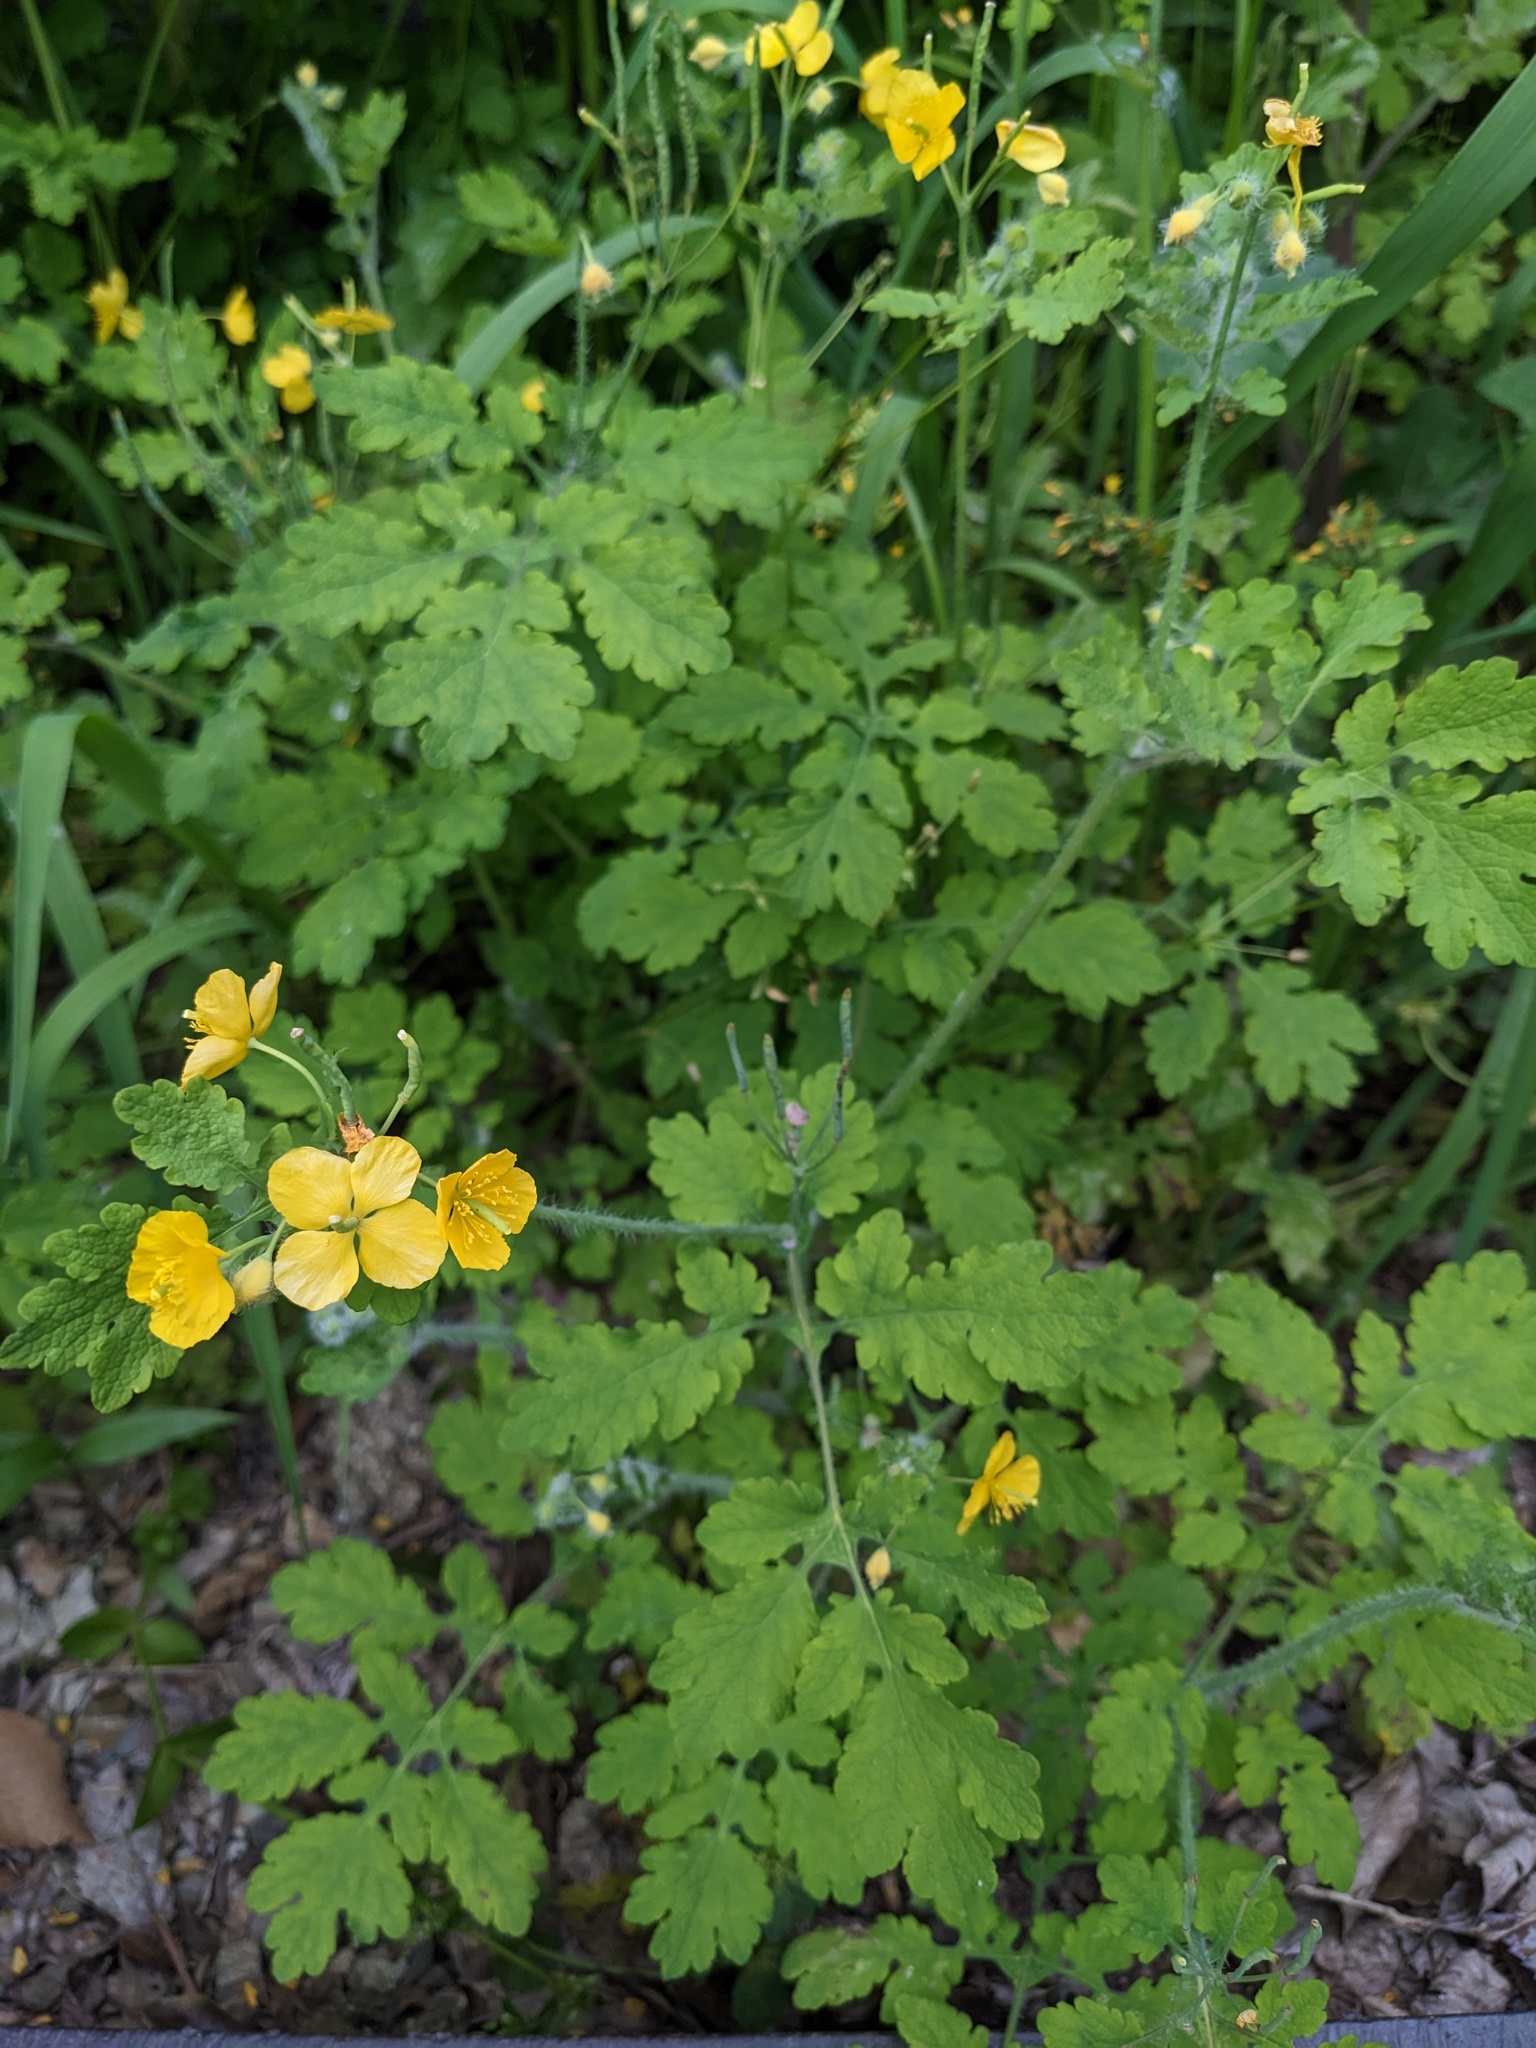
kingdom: Plantae
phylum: Tracheophyta
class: Magnoliopsida
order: Ranunculales
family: Papaveraceae
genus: Chelidonium
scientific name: Chelidonium majus
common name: Greater celandine
